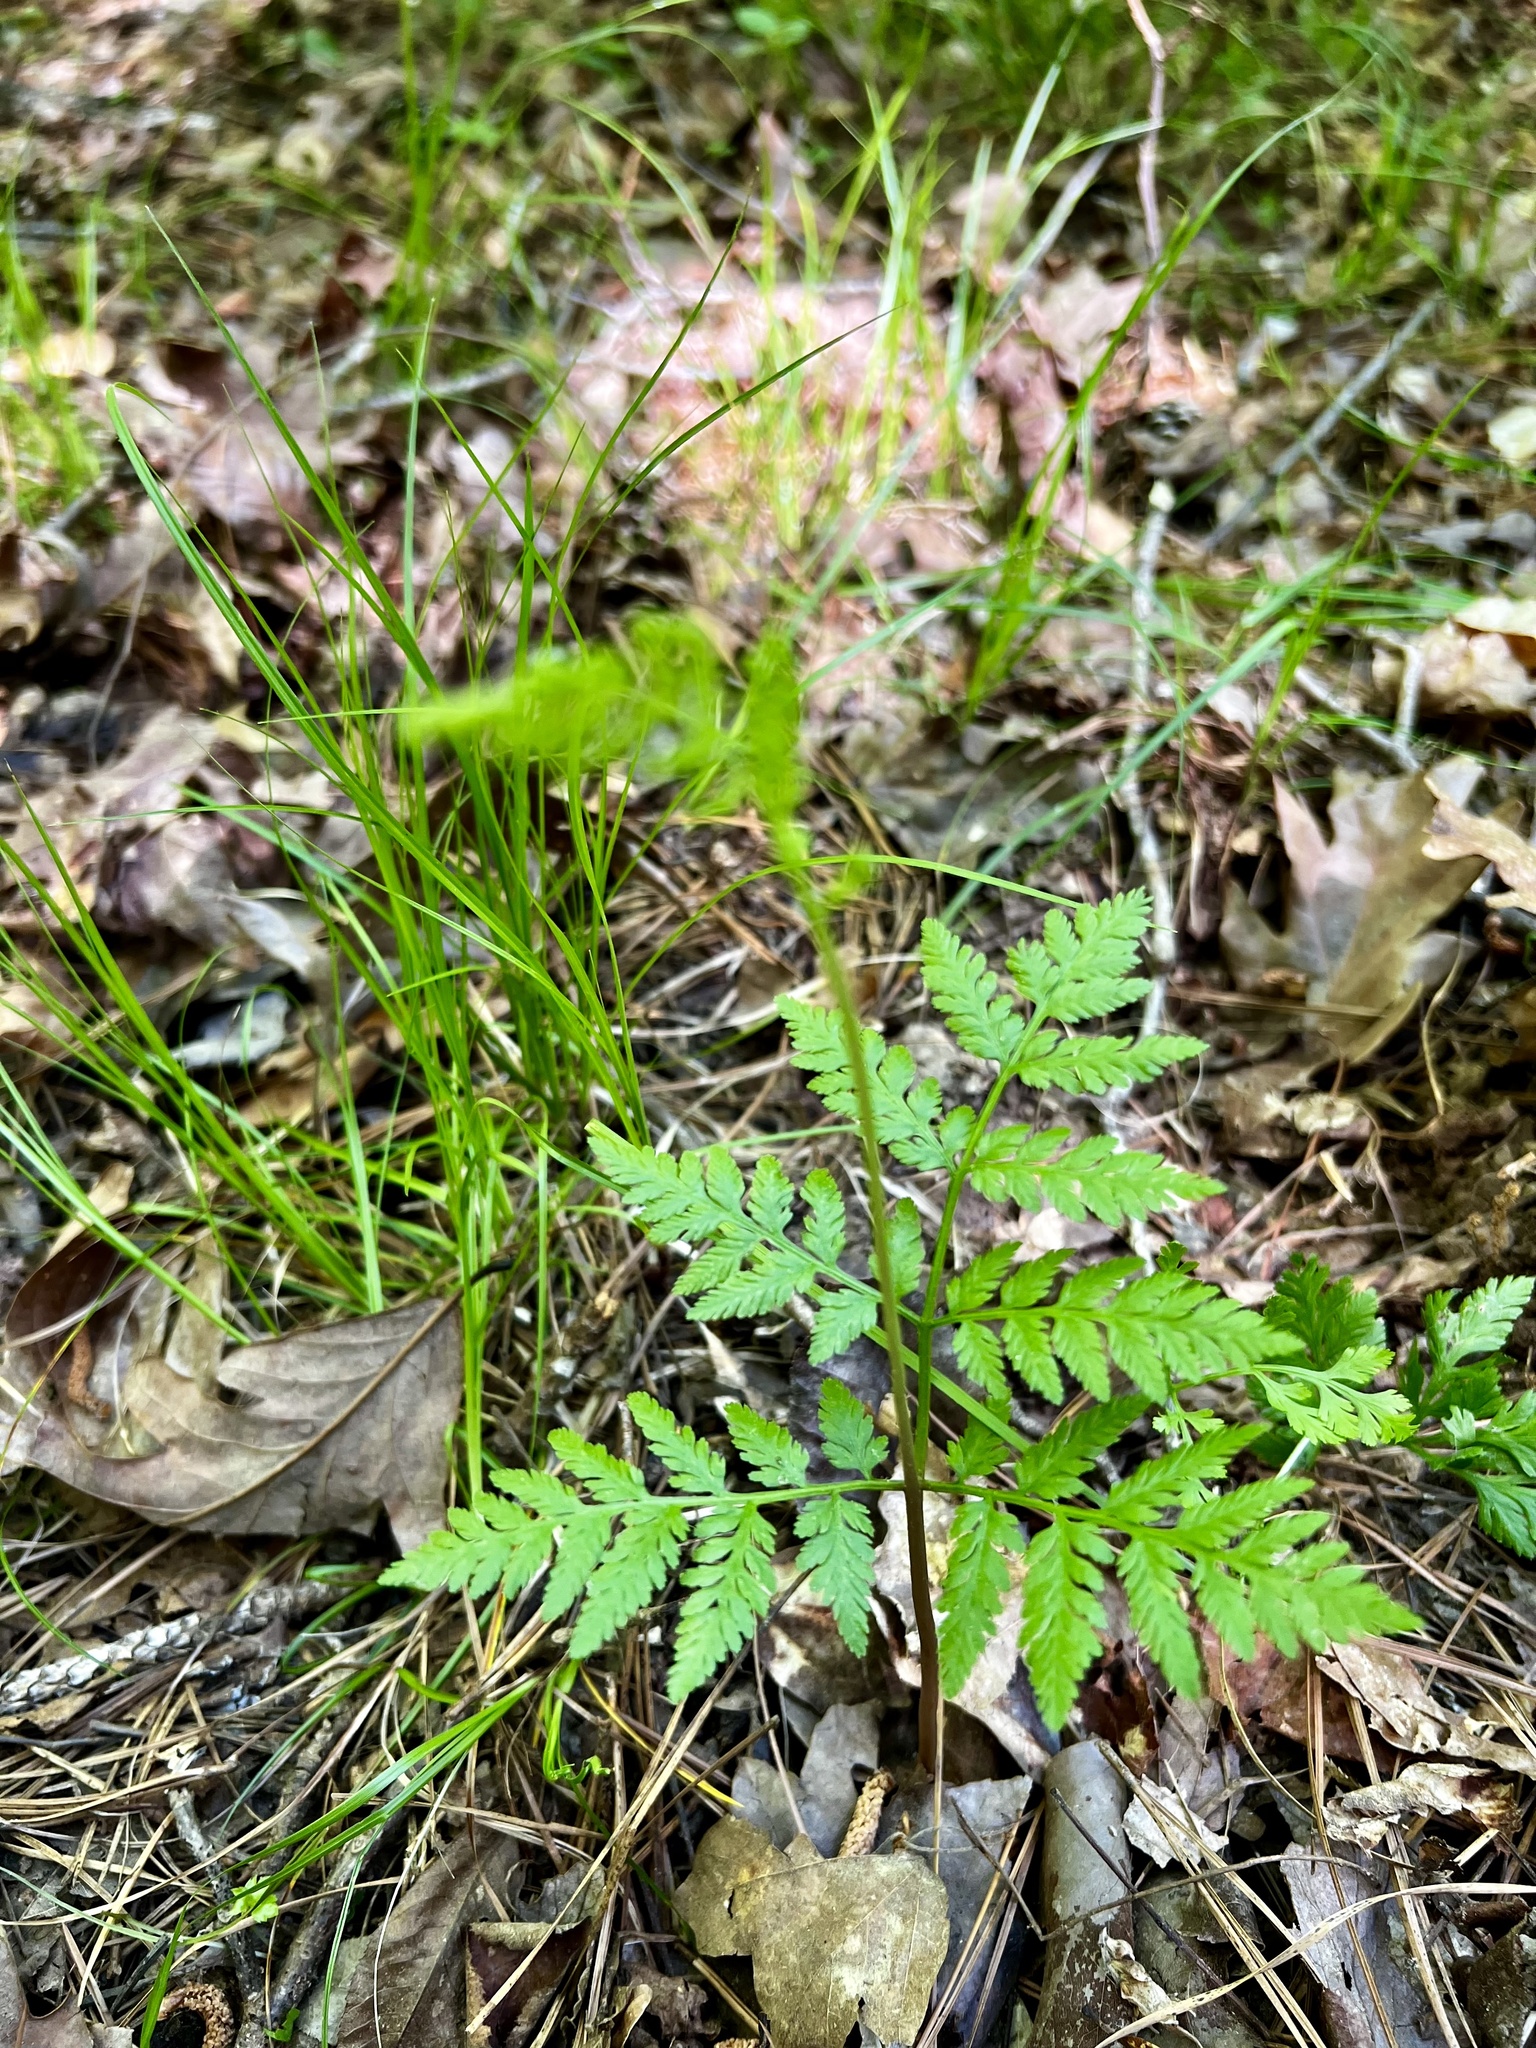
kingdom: Plantae
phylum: Tracheophyta
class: Polypodiopsida
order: Ophioglossales
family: Ophioglossaceae
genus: Botrypus
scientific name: Botrypus virginianus
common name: Common grapefern
